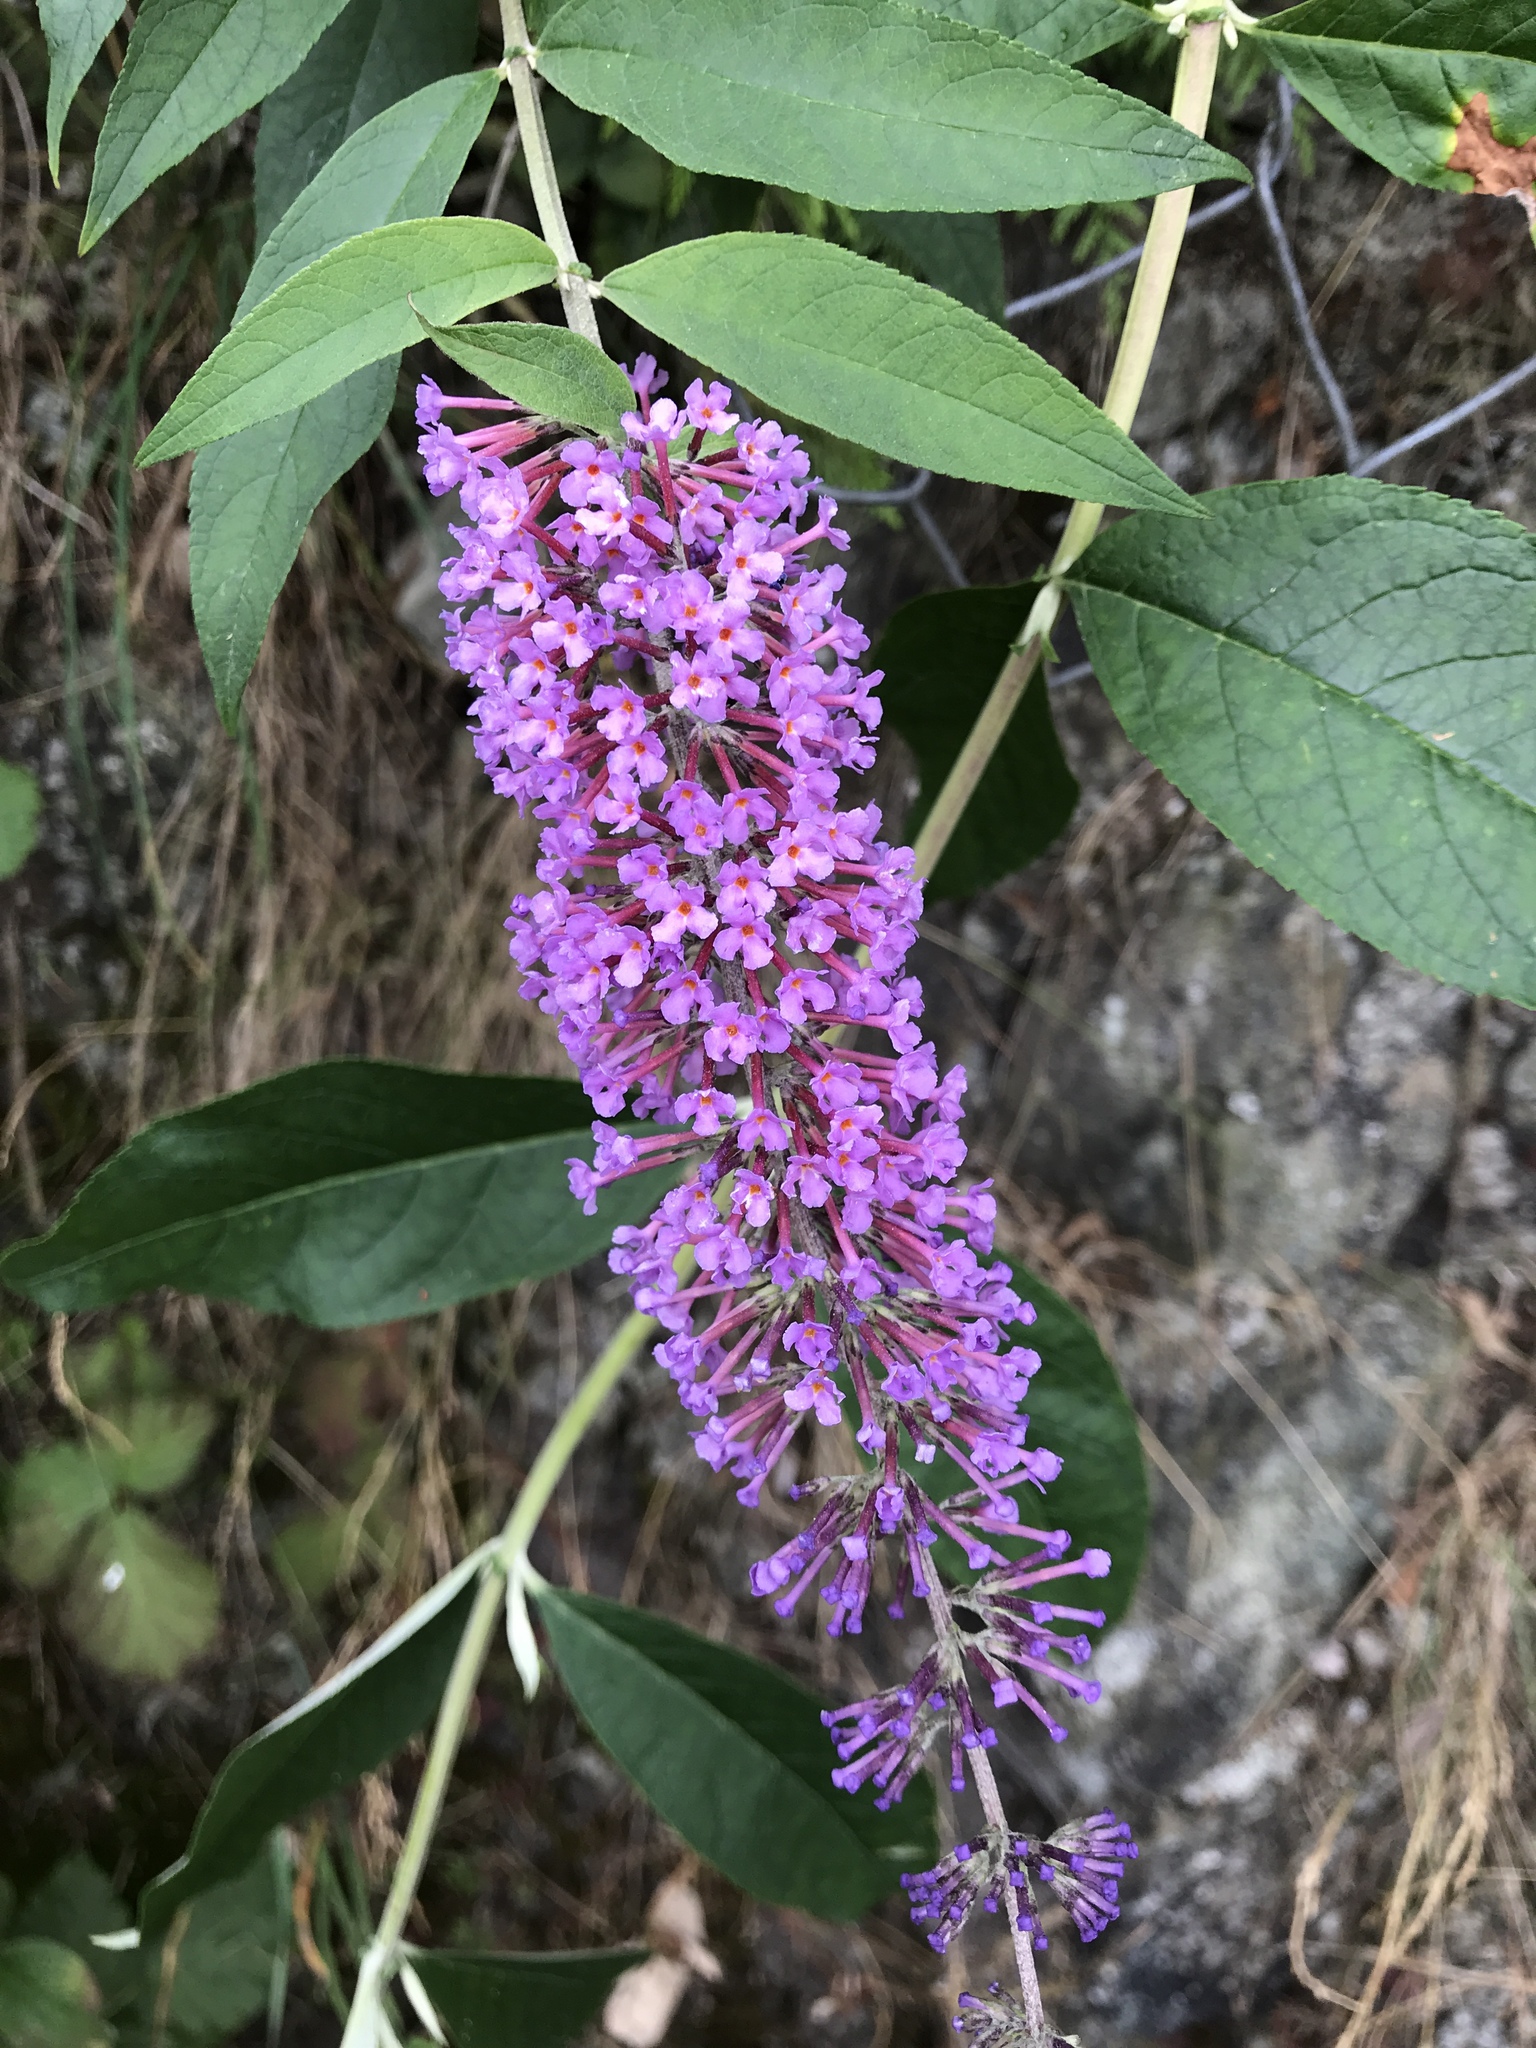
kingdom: Plantae
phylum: Tracheophyta
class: Magnoliopsida
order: Lamiales
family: Scrophulariaceae
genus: Buddleja
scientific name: Buddleja davidii
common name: Butterfly-bush
